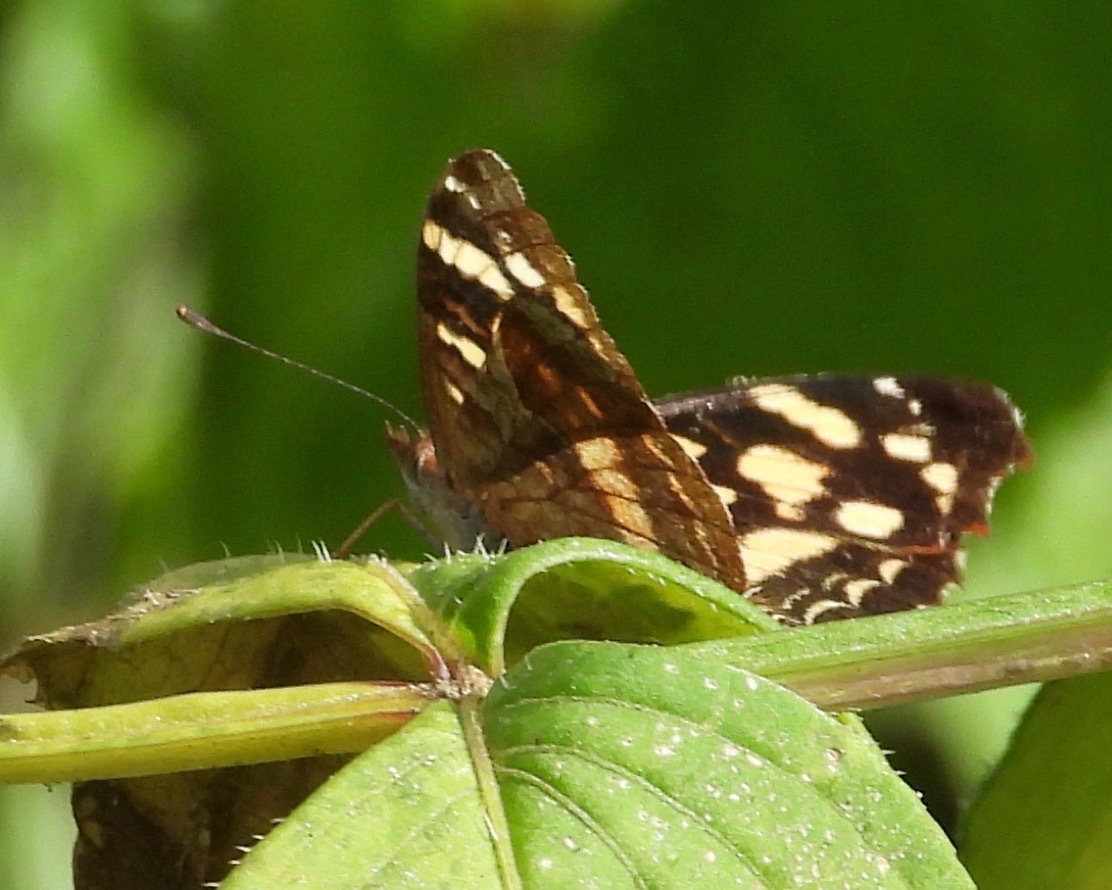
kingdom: Animalia
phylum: Arthropoda
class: Insecta
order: Lepidoptera
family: Nymphalidae
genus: Anthanassa
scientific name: Anthanassa tulcis
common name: Pale-banded crescent
